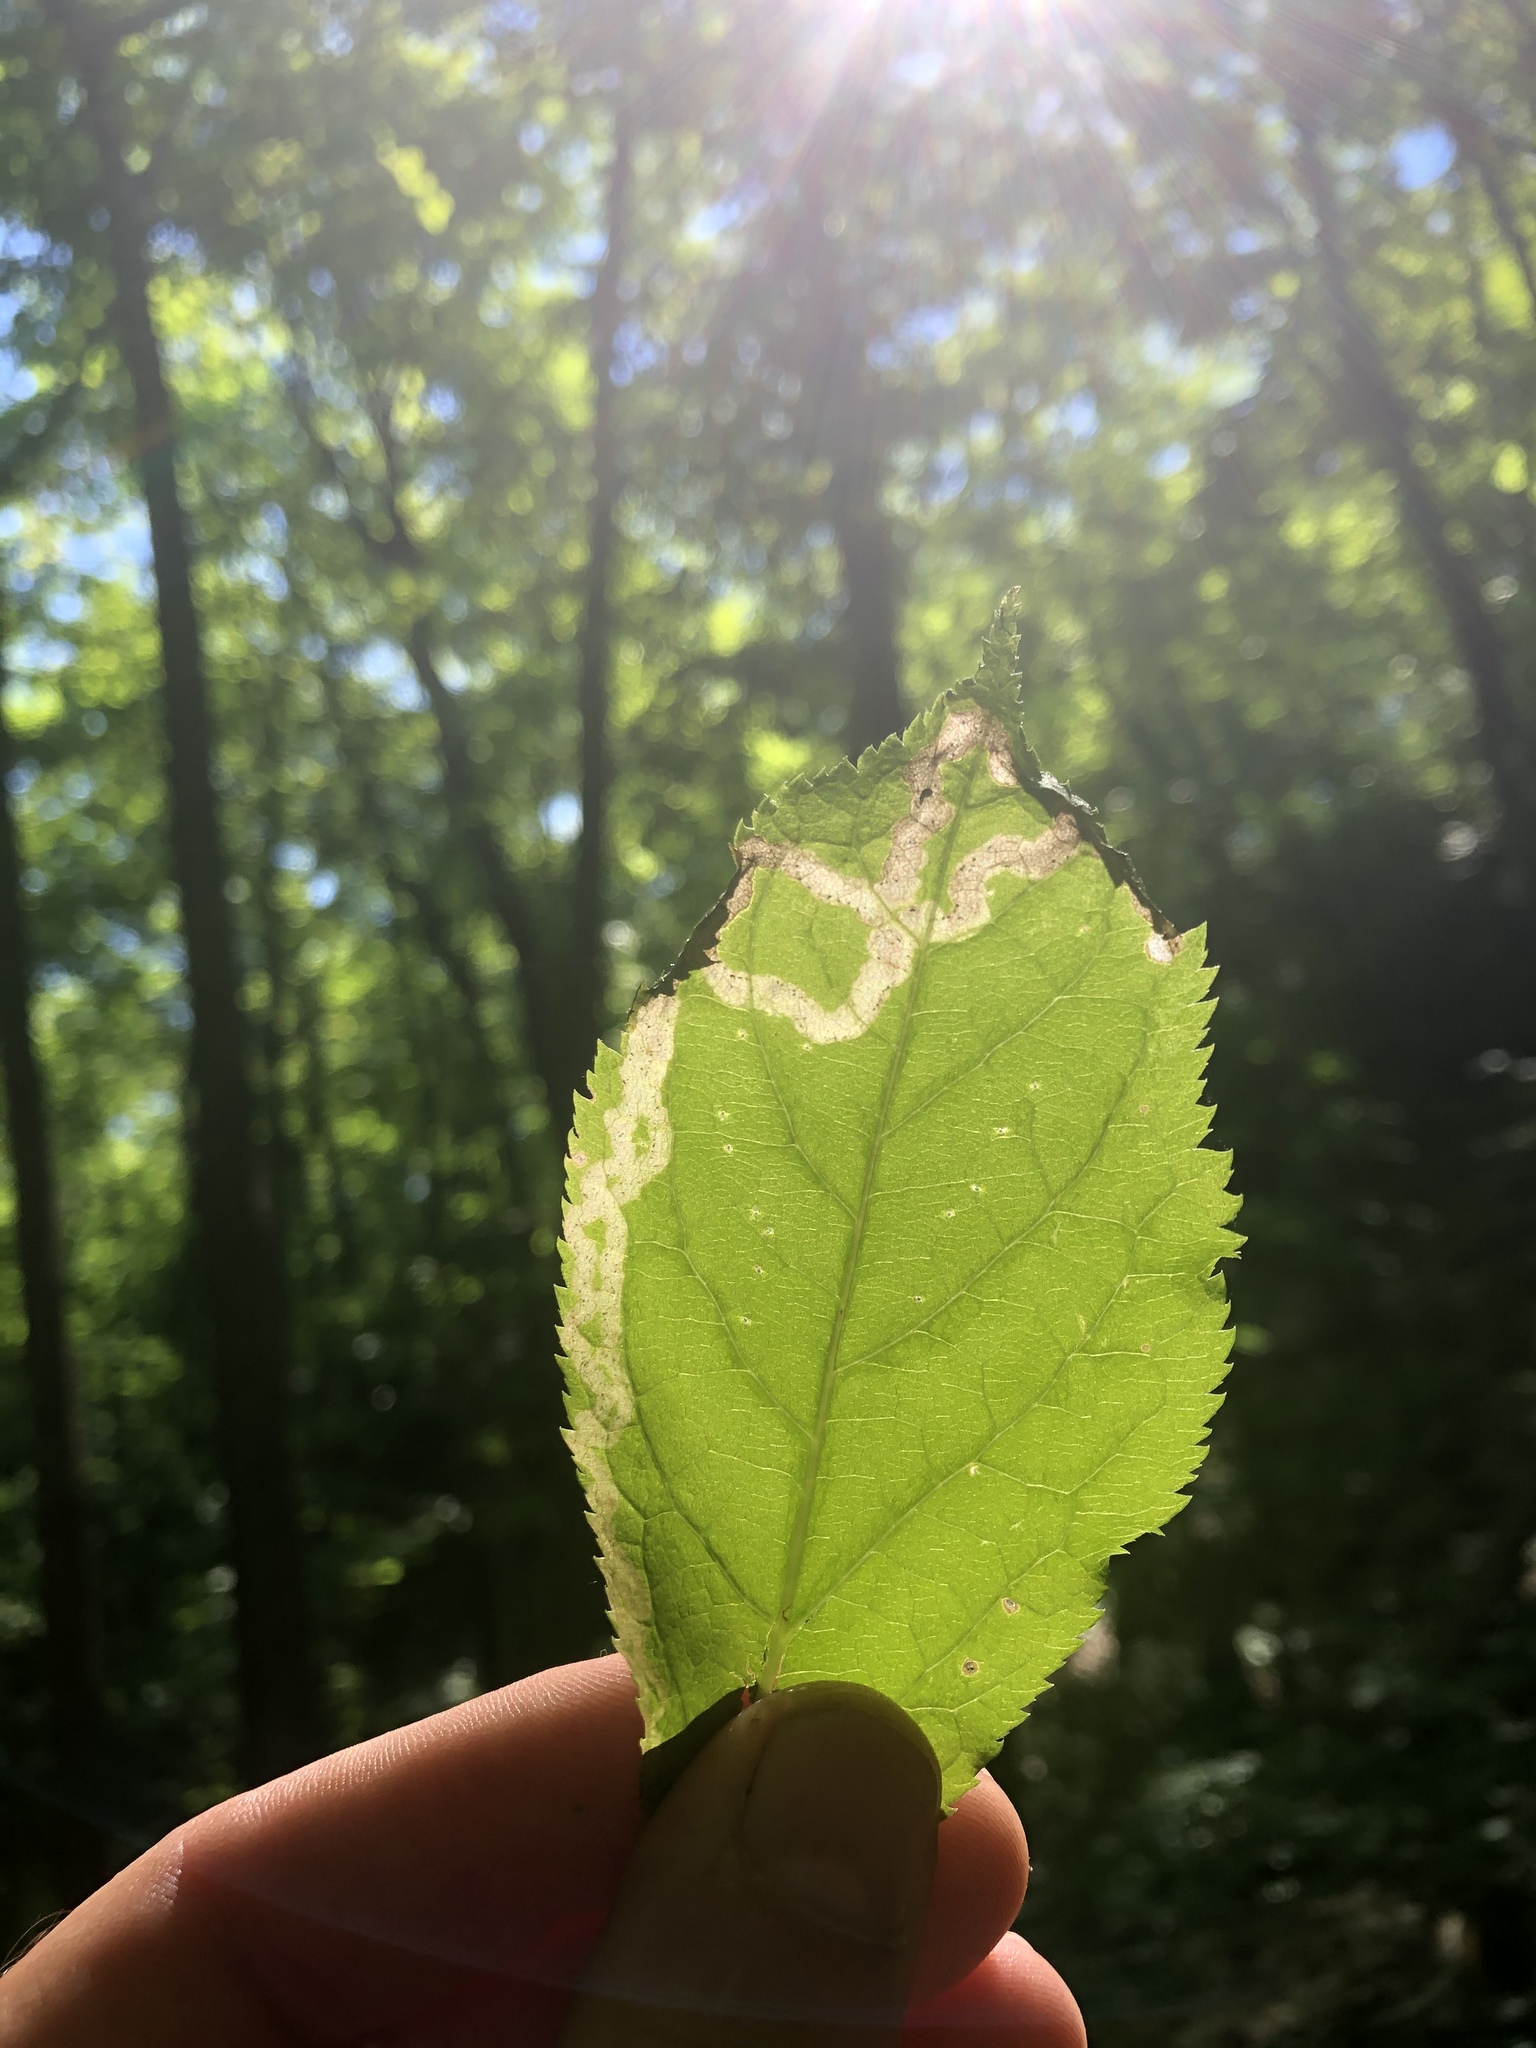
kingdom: Animalia
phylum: Arthropoda
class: Insecta
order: Diptera
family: Agromyzidae
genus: Phytomyza
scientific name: Phytomyza aralivora
